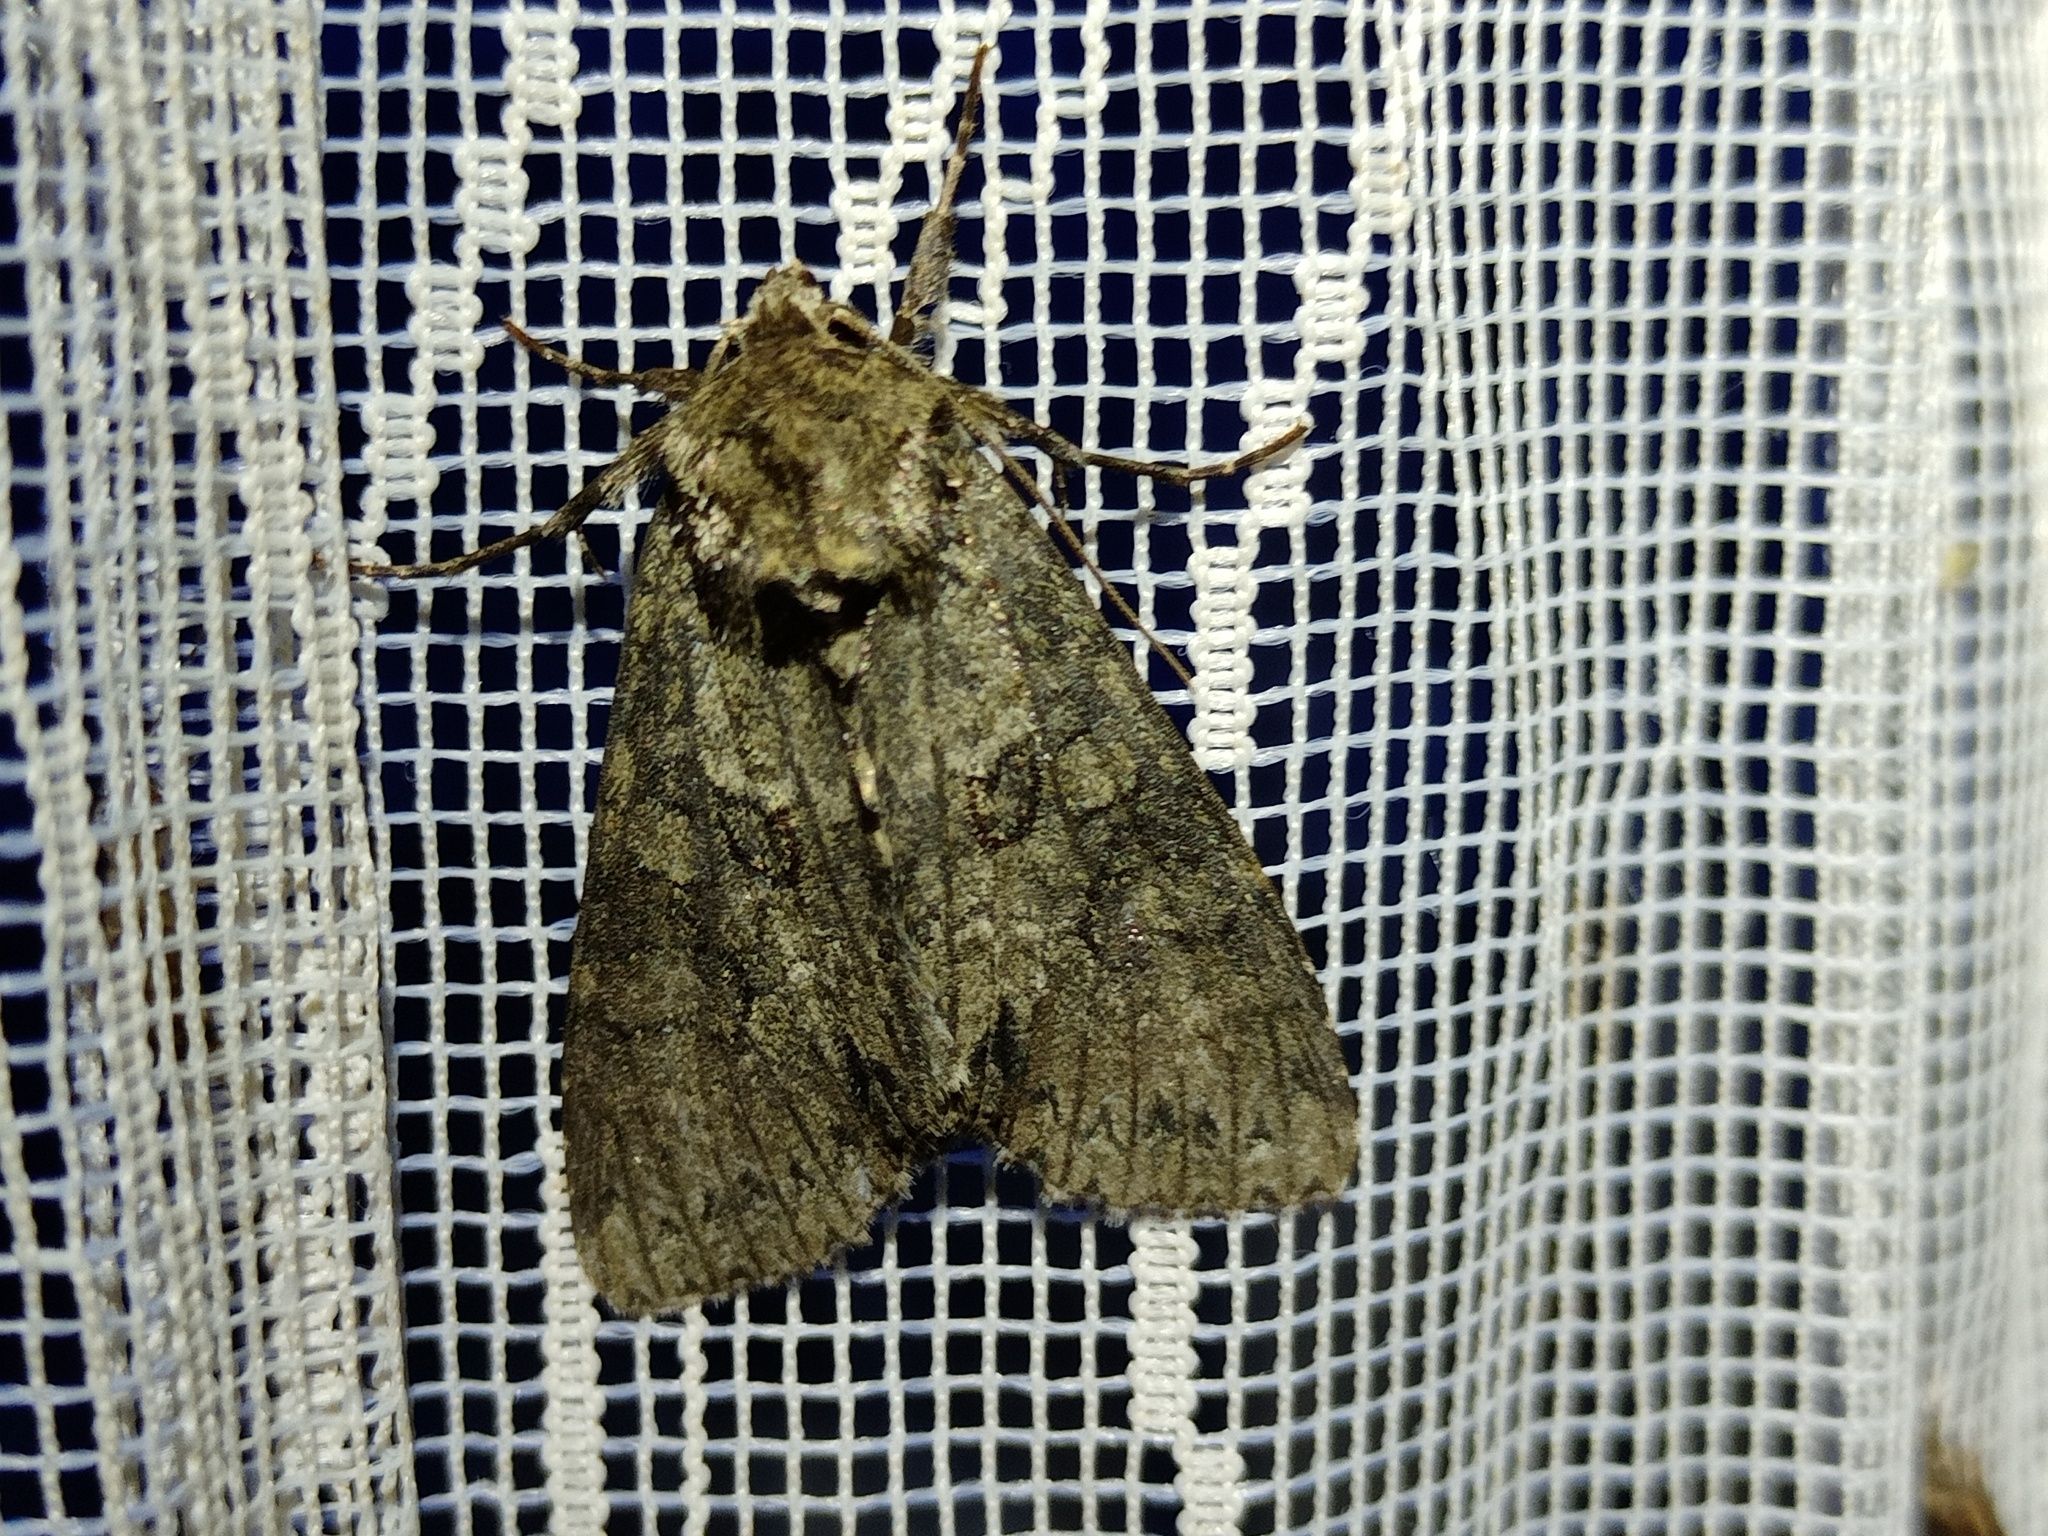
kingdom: Animalia
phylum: Arthropoda
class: Insecta
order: Lepidoptera
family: Noctuidae
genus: Polia
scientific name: Polia nebulosa
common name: Grey arches
